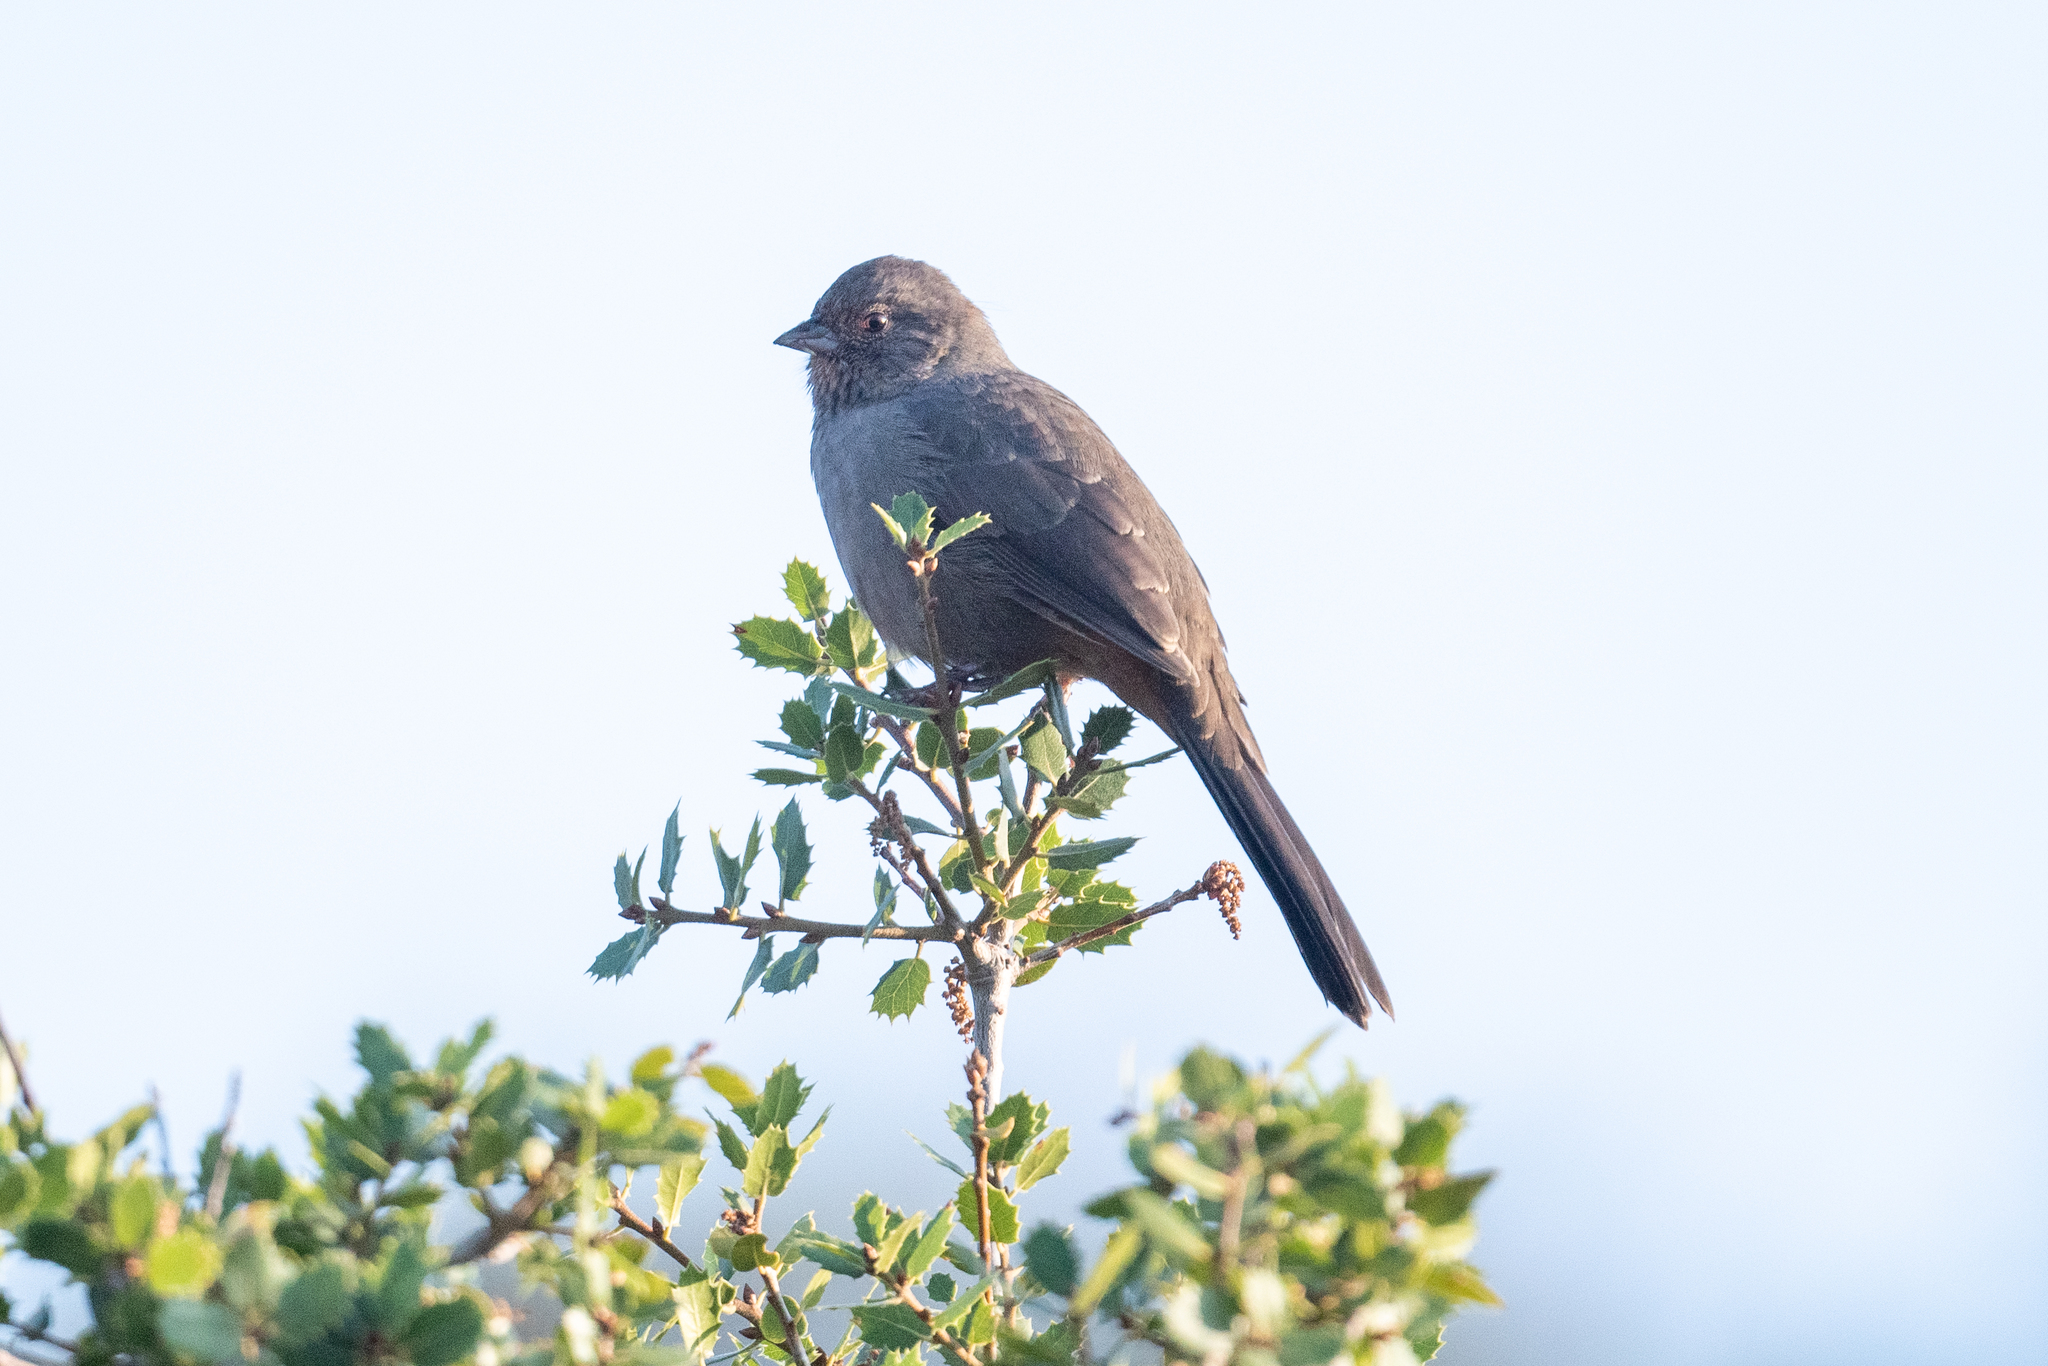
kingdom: Animalia
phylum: Chordata
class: Aves
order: Passeriformes
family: Passerellidae
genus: Melozone
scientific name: Melozone crissalis
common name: California towhee
